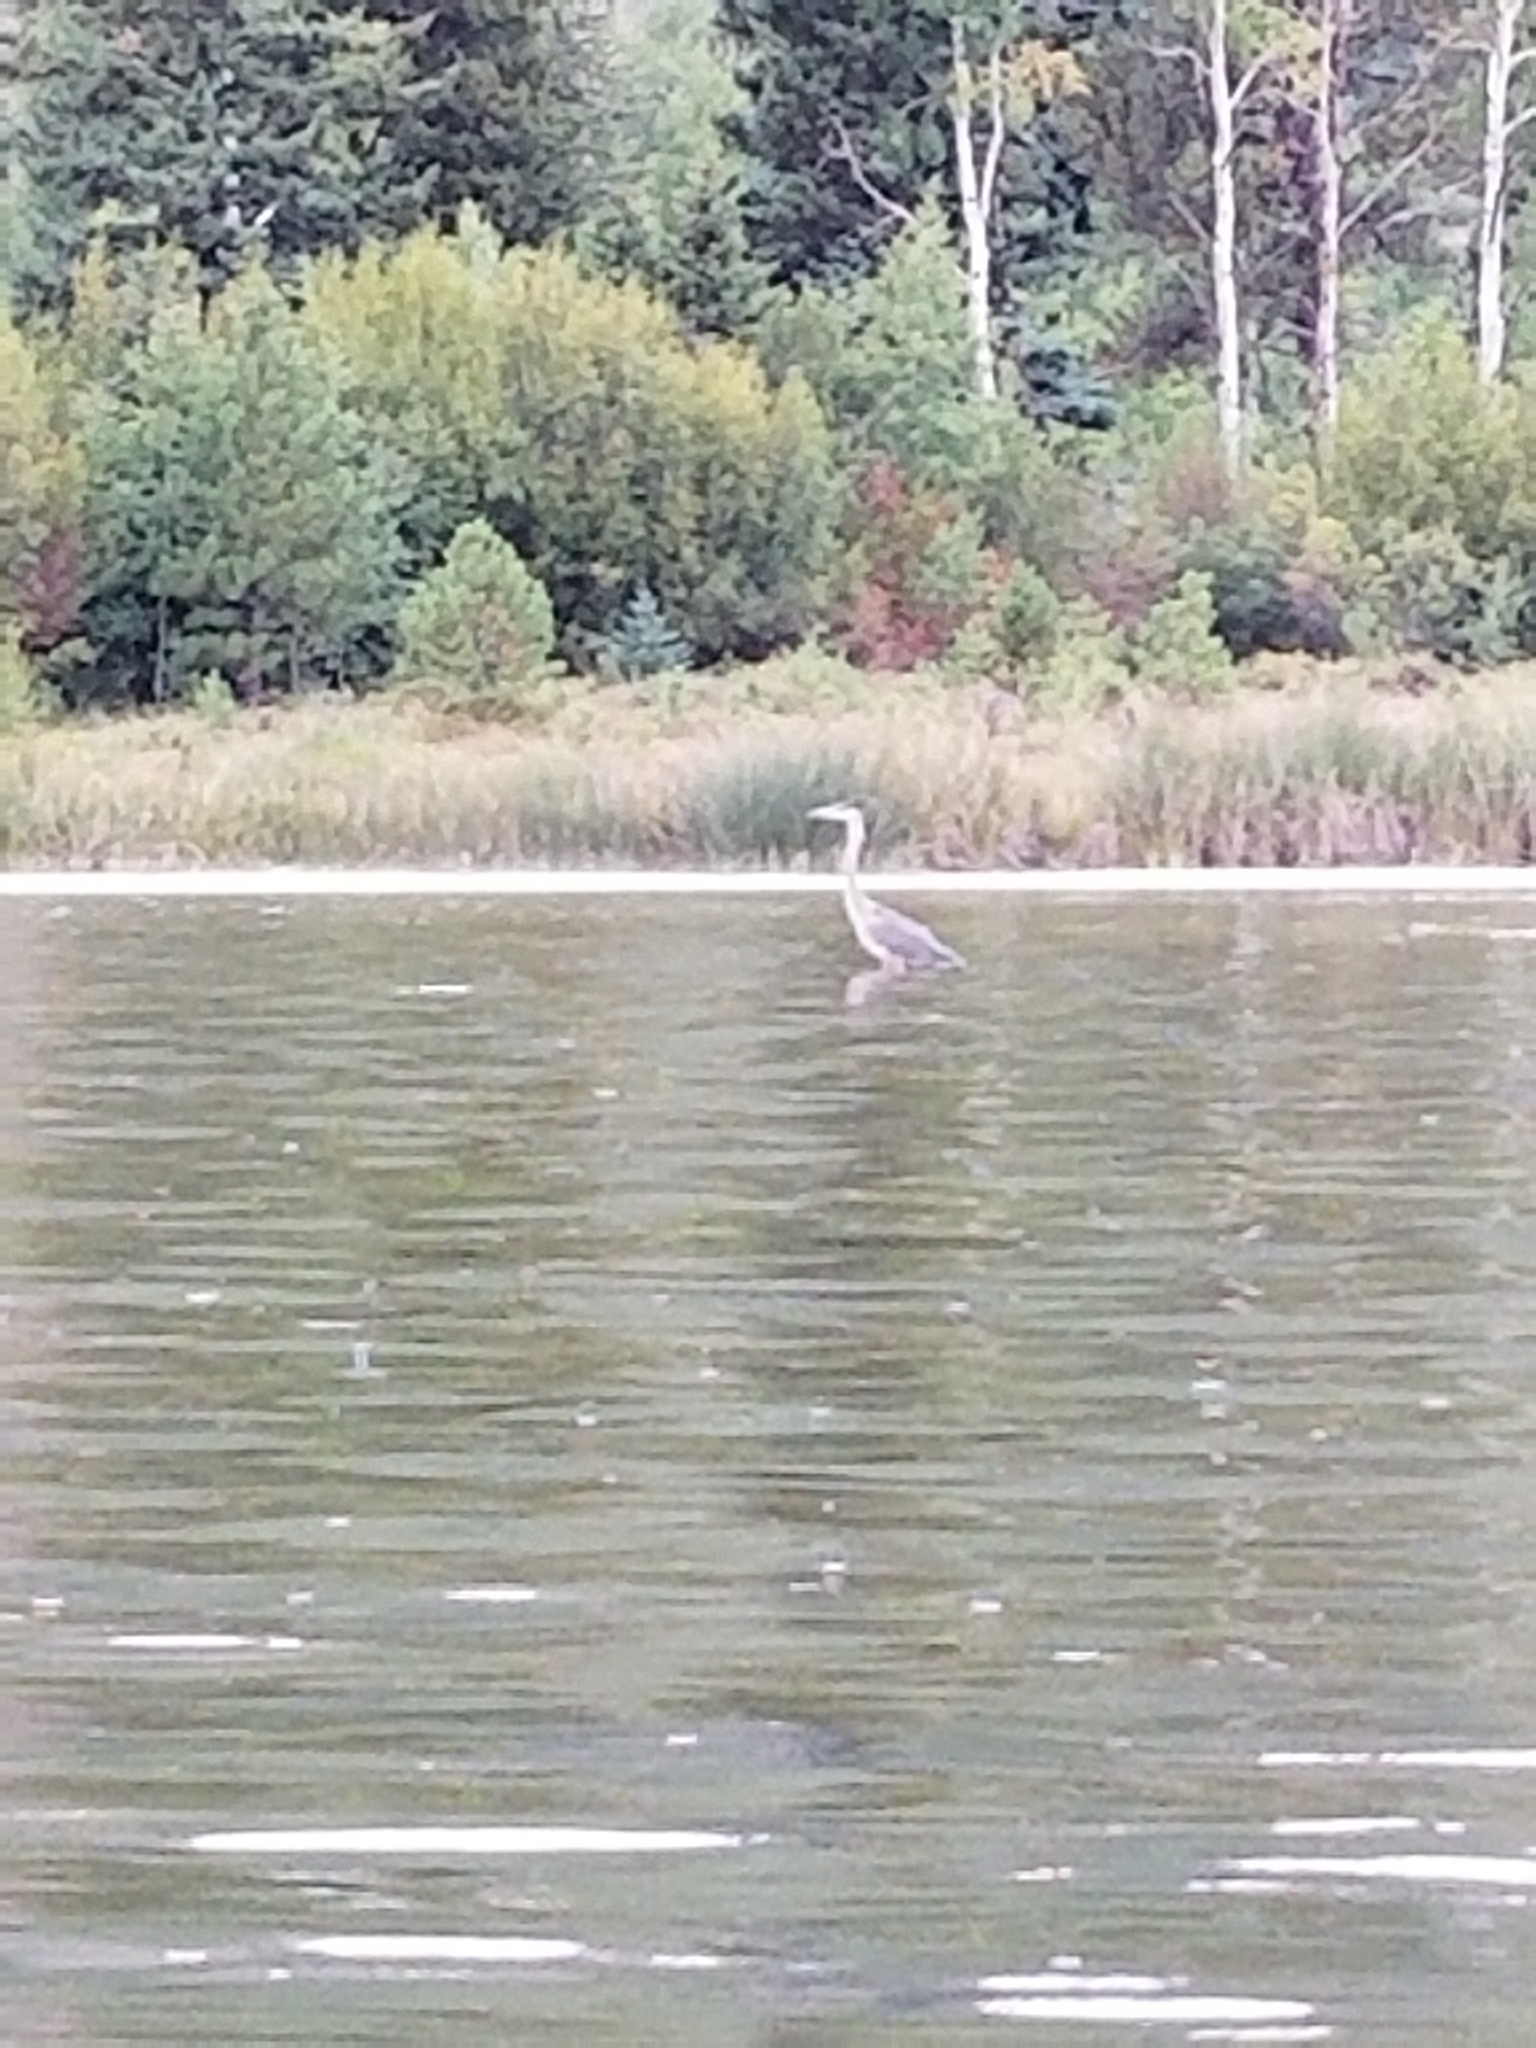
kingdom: Animalia
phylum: Chordata
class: Aves
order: Pelecaniformes
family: Ardeidae
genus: Ardea
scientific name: Ardea herodias
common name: Great blue heron
